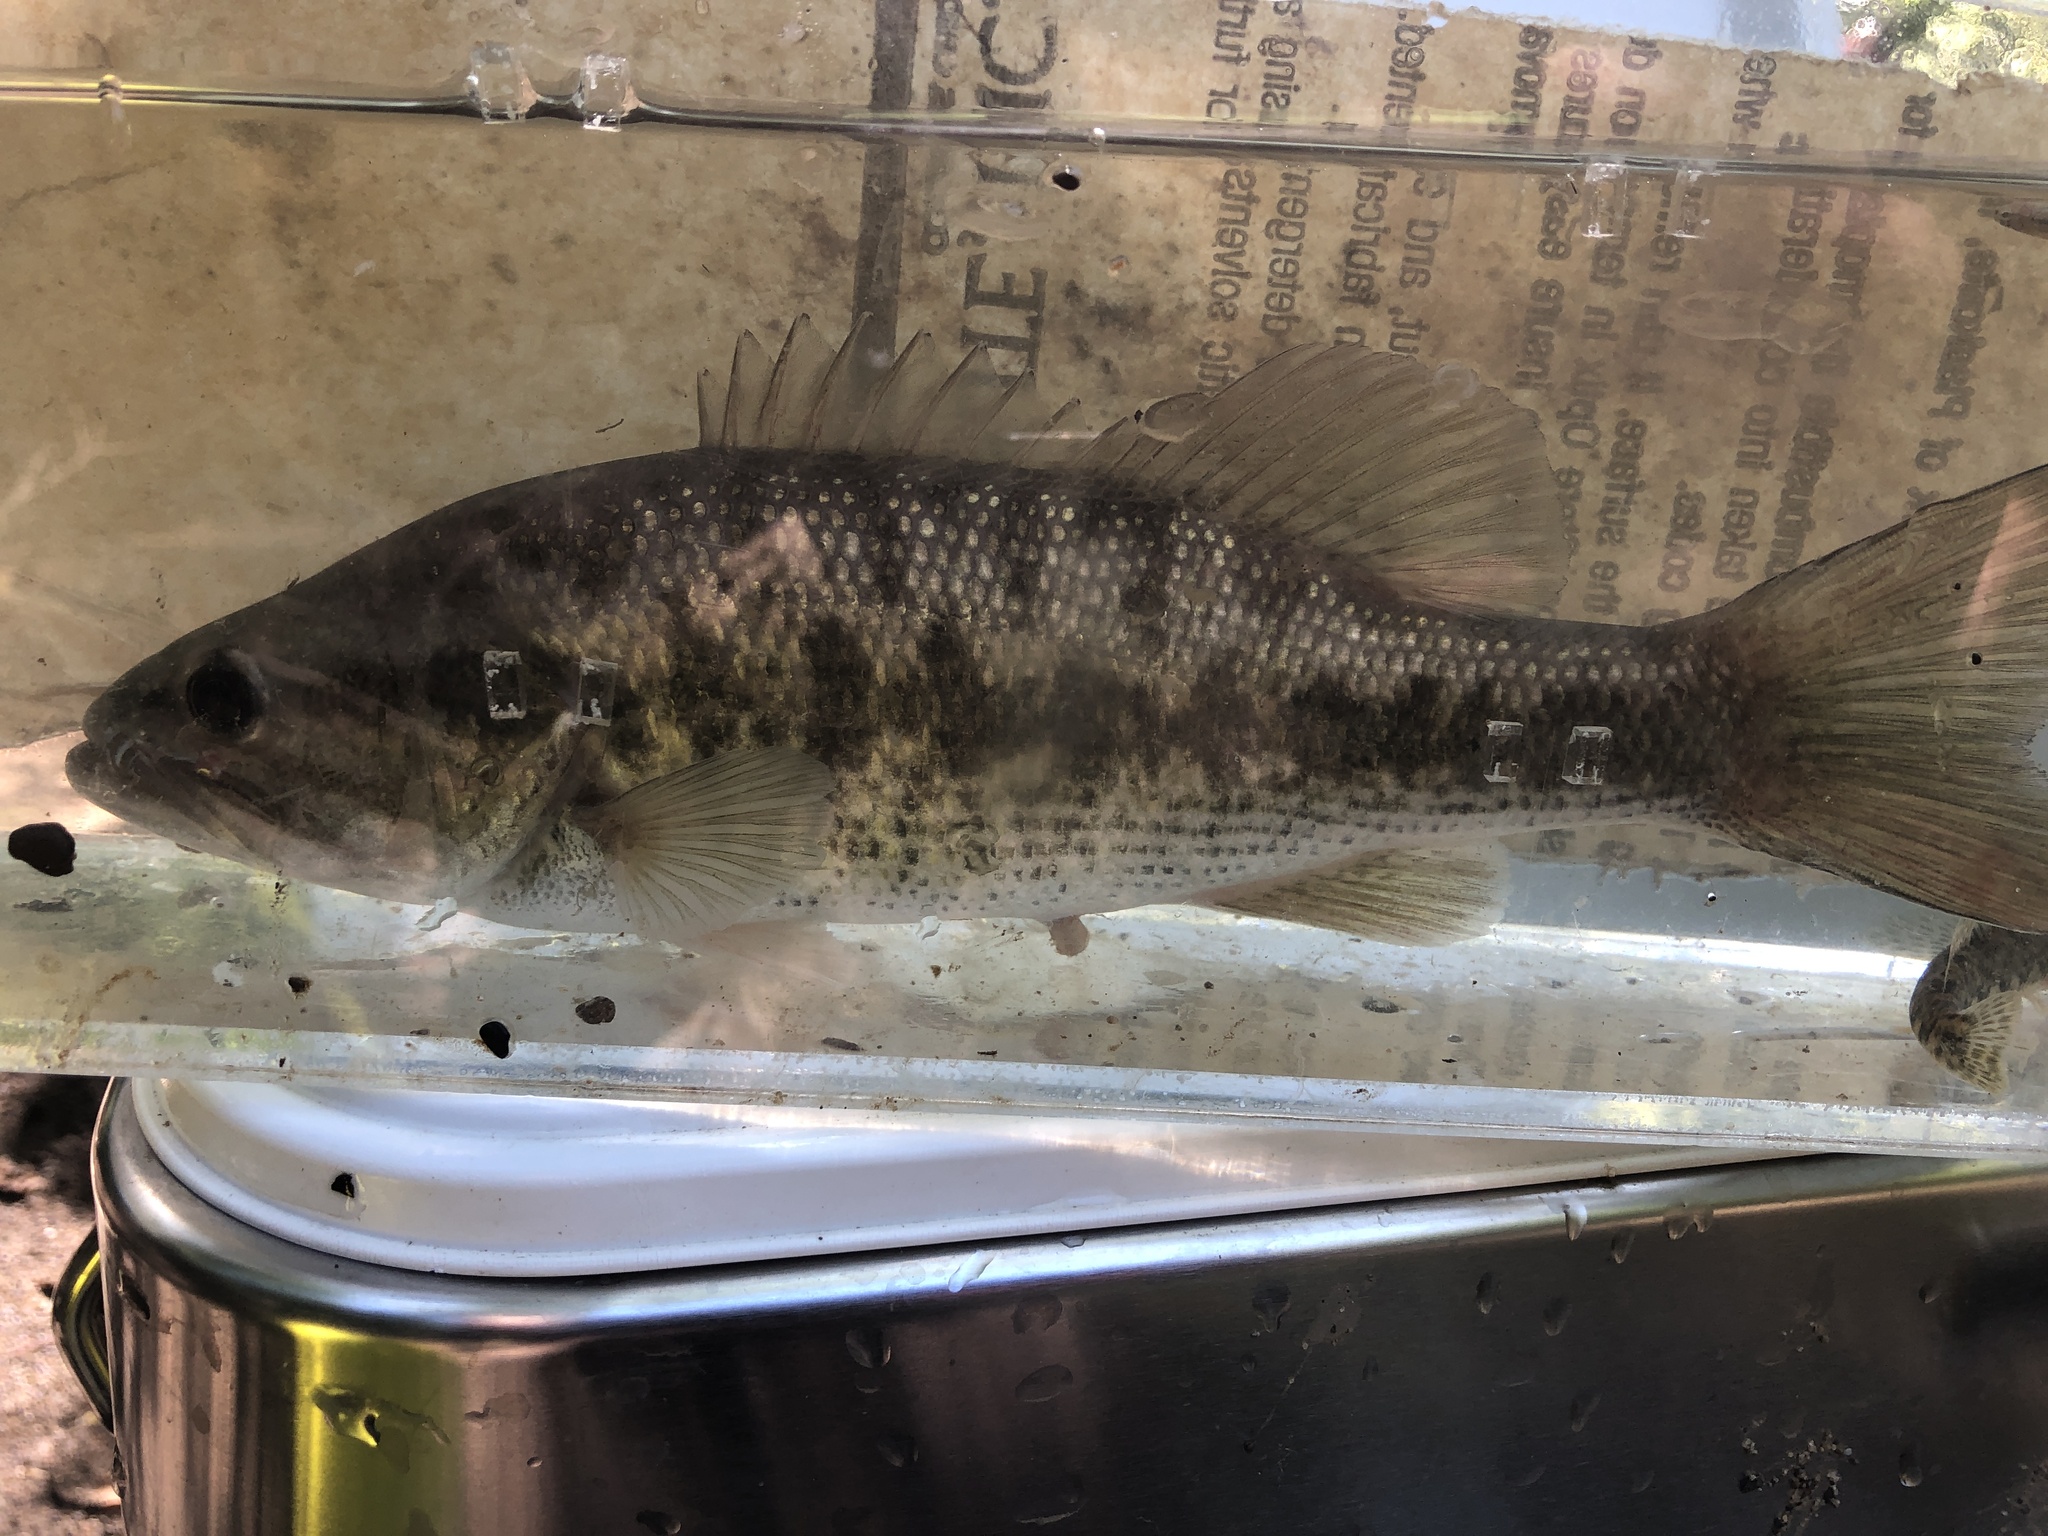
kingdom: Animalia
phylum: Chordata
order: Perciformes
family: Centrarchidae
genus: Micropterus
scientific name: Micropterus punctulatus
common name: Spotted bass
